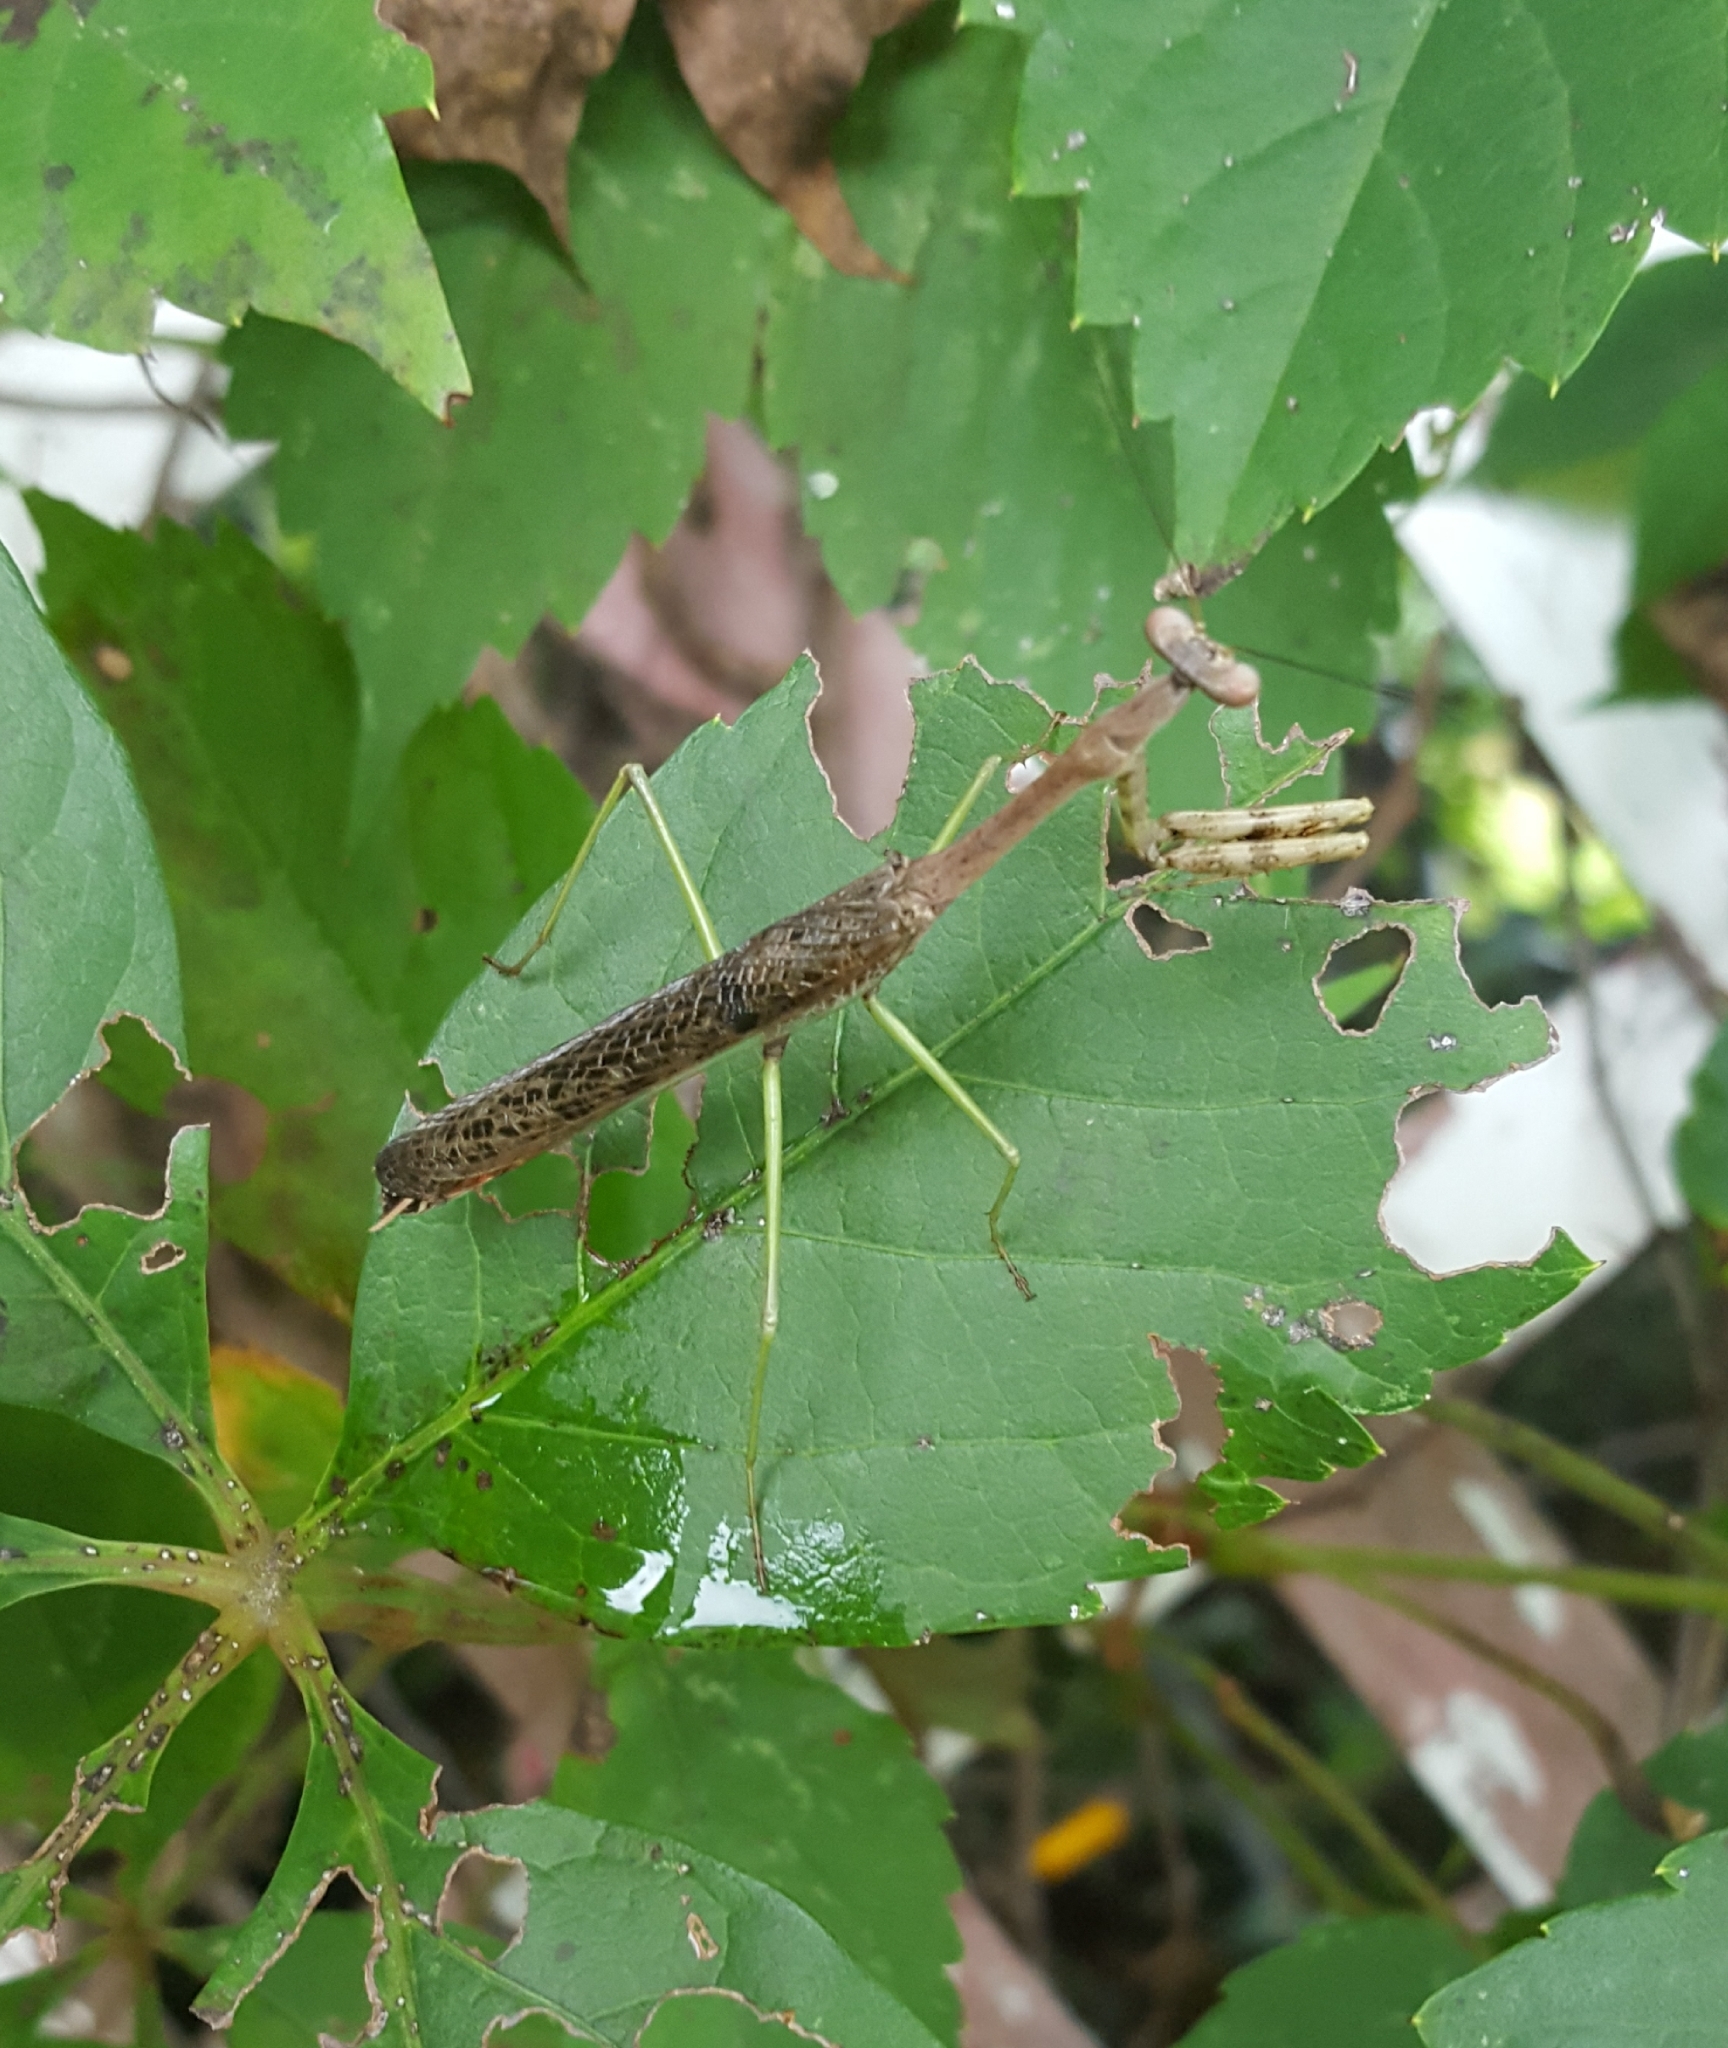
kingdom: Animalia
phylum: Arthropoda
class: Insecta
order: Mantodea
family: Mantidae
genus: Stagmomantis
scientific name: Stagmomantis carolina
